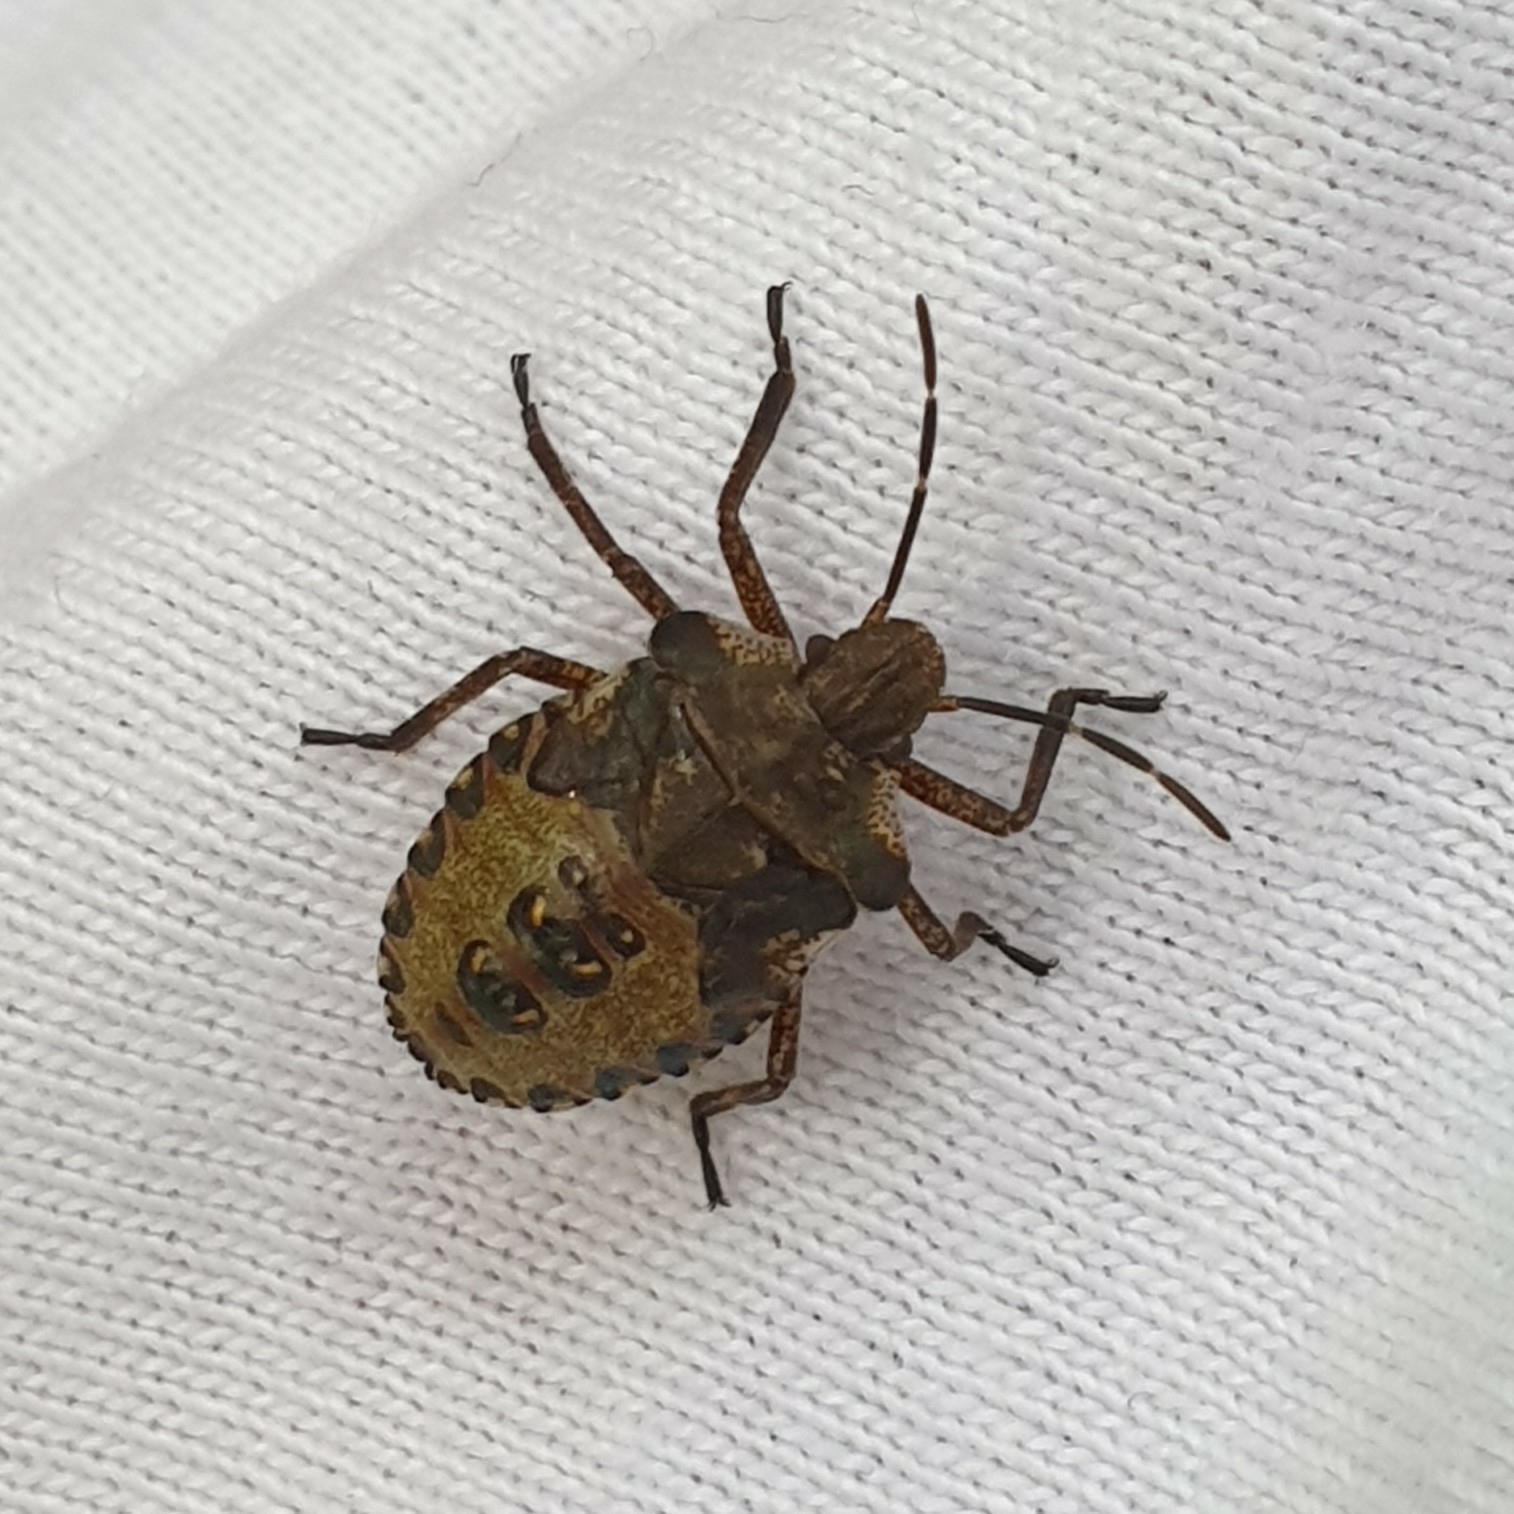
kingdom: Animalia
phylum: Arthropoda
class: Insecta
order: Hemiptera
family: Pentatomidae
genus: Pentatoma
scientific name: Pentatoma rufipes
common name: Forest bug
